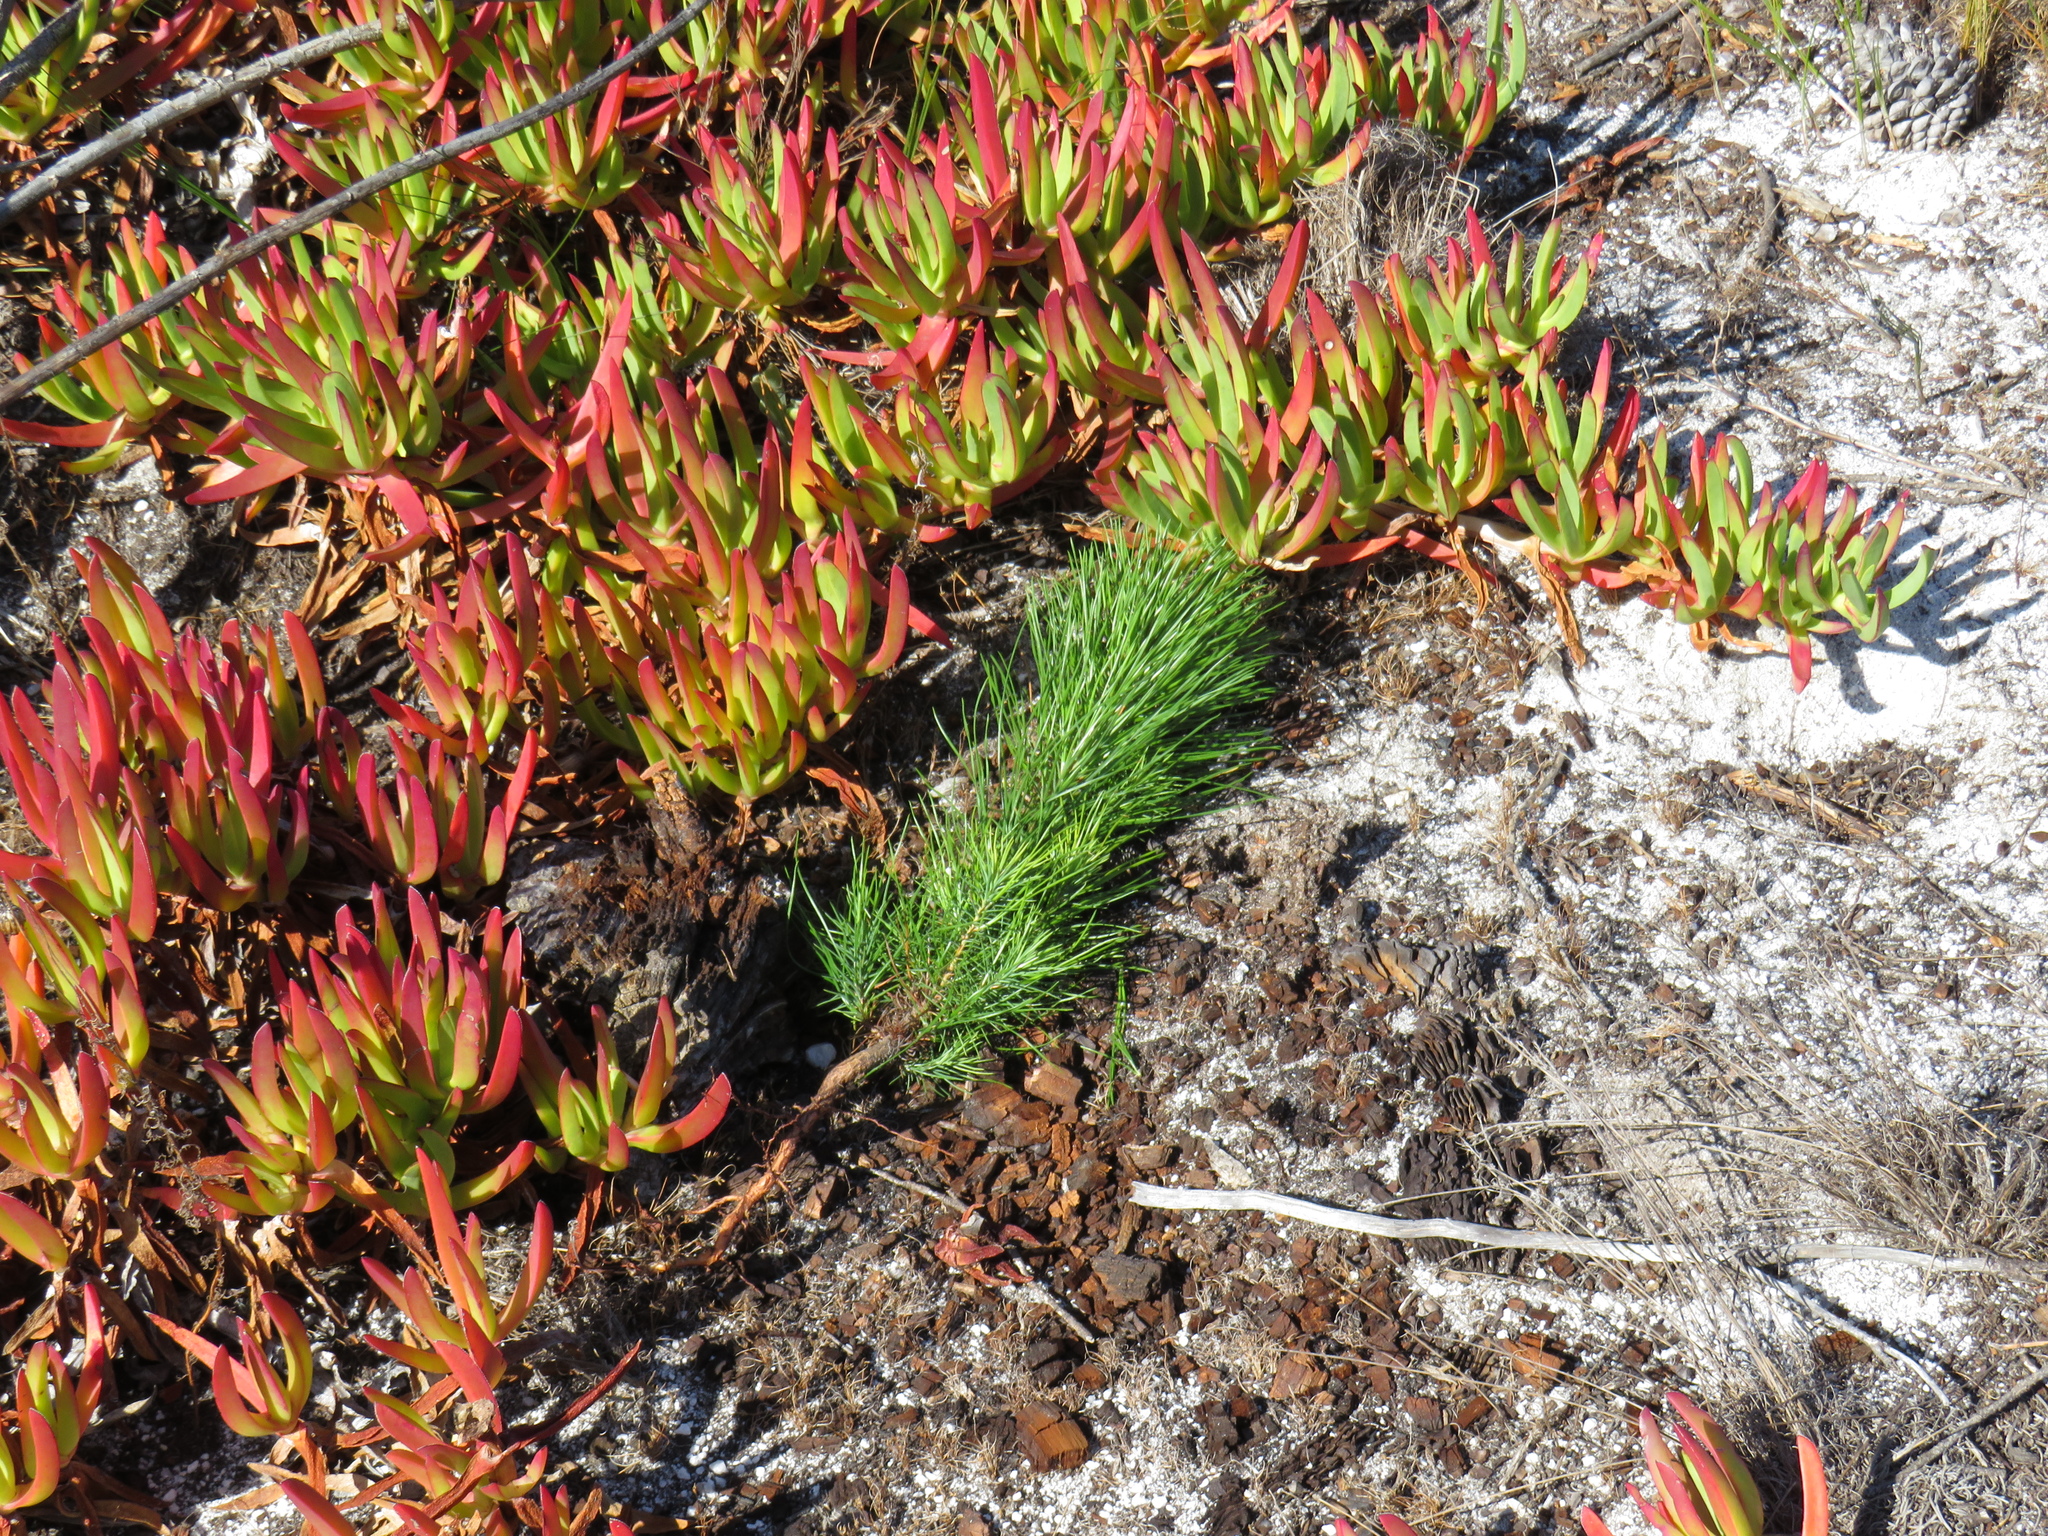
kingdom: Plantae
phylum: Tracheophyta
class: Pinopsida
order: Pinales
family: Pinaceae
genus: Pinus
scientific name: Pinus radiata
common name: Monterey pine
